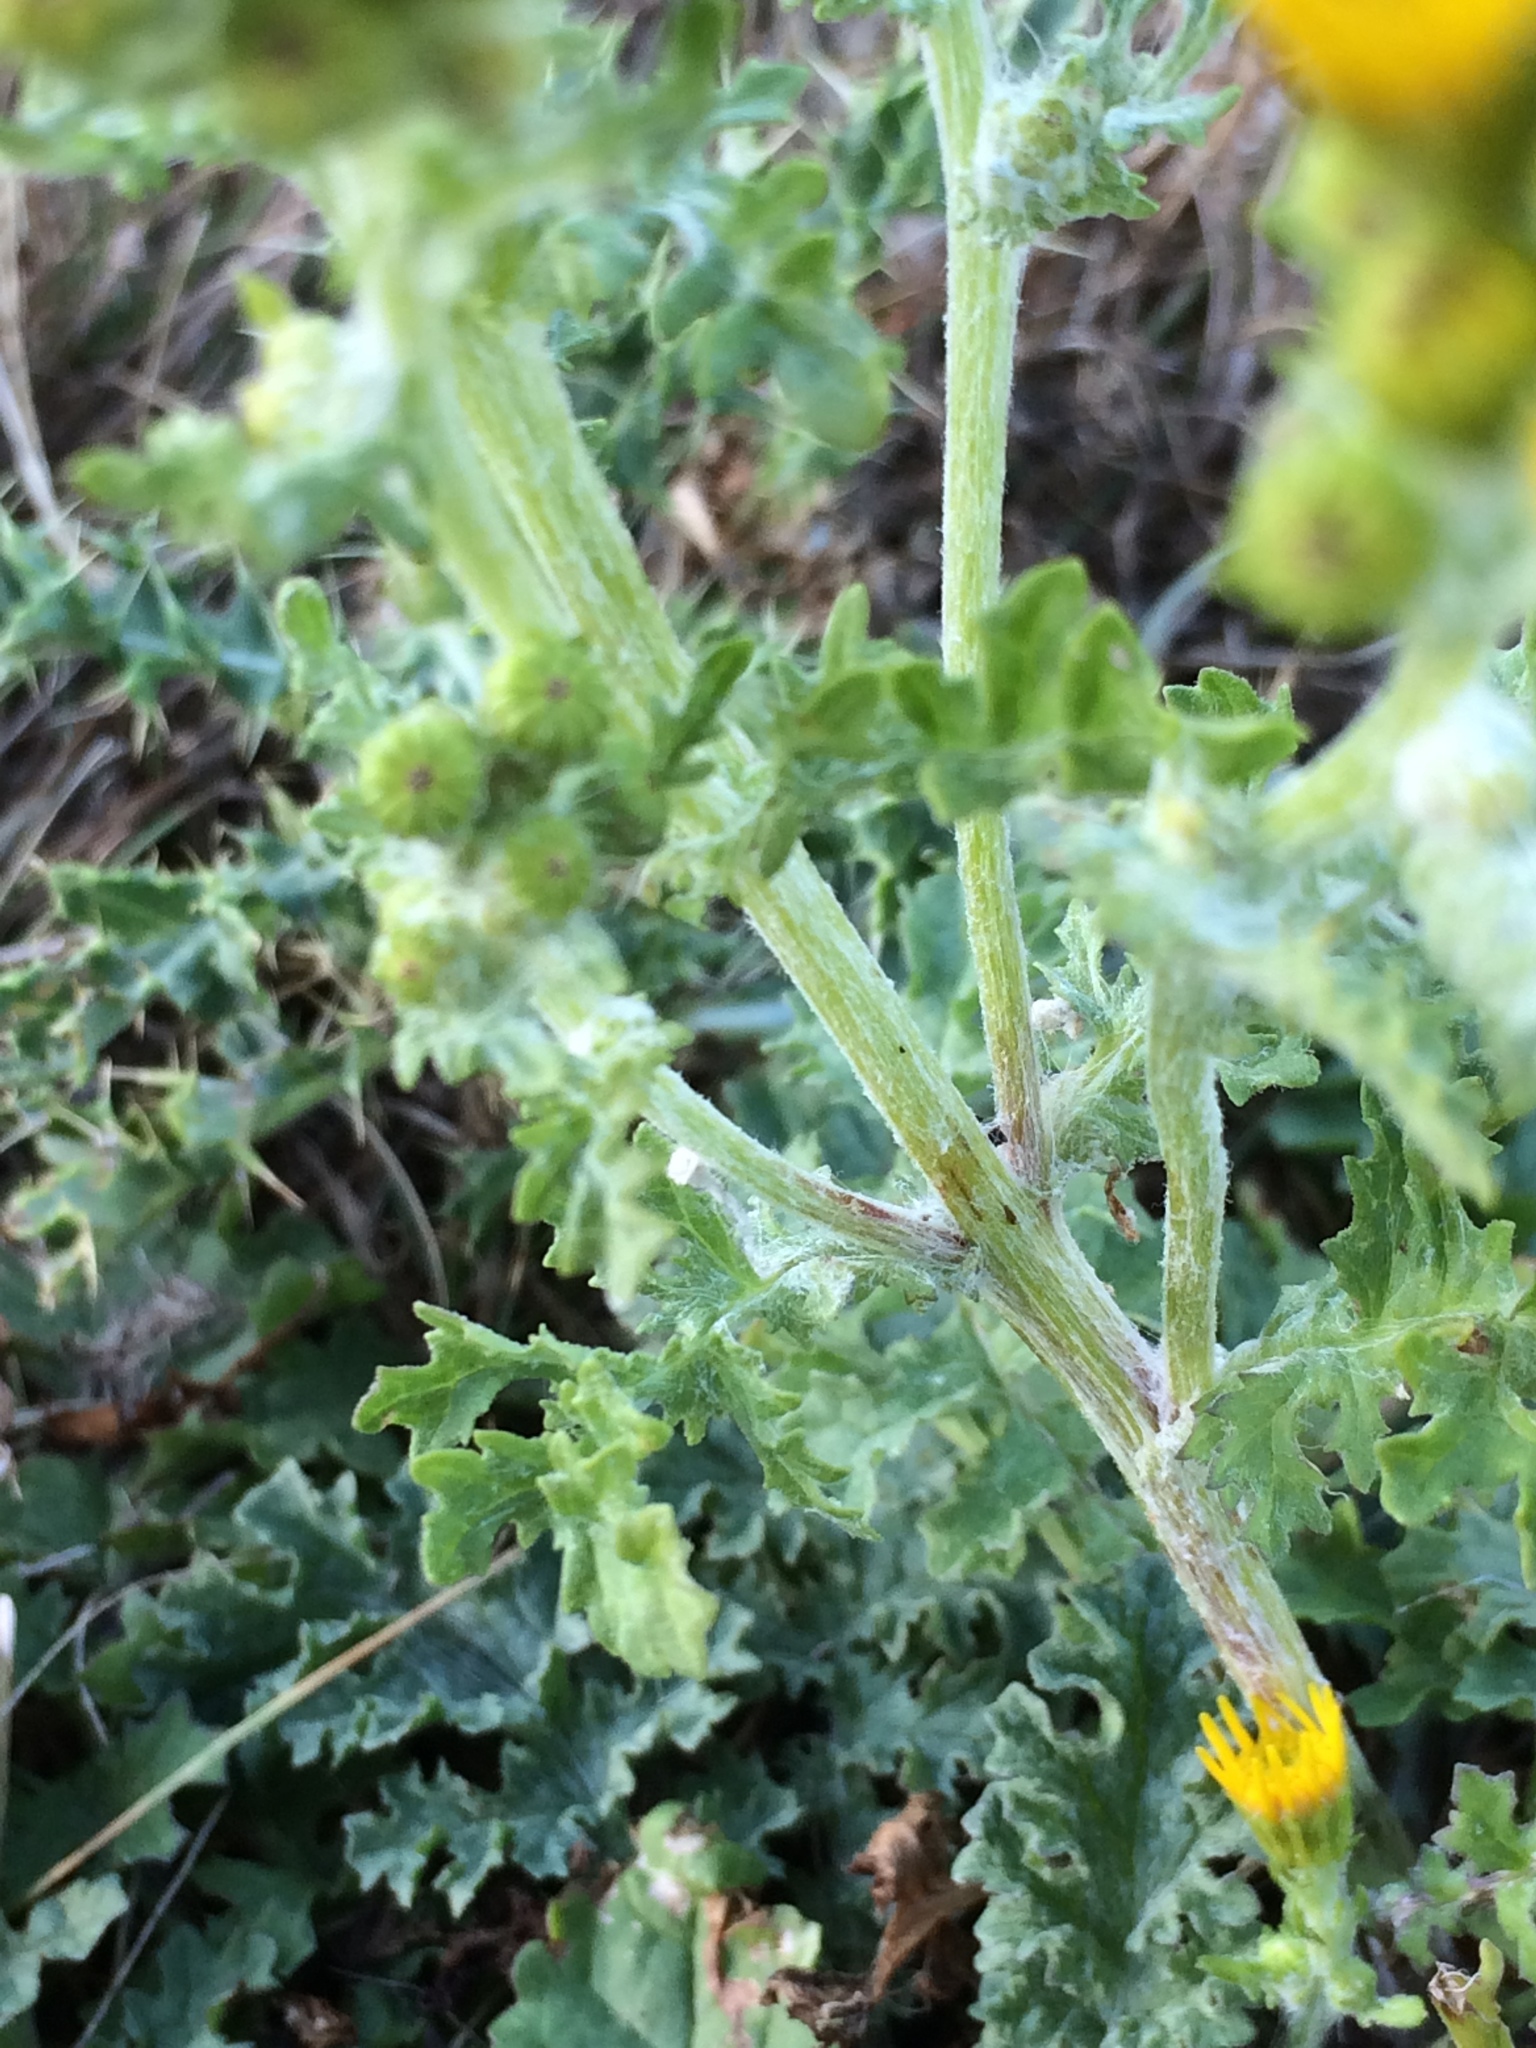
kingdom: Plantae
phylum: Tracheophyta
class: Magnoliopsida
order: Asterales
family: Asteraceae
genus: Jacobaea
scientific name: Jacobaea vulgaris
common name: Stinking willie
